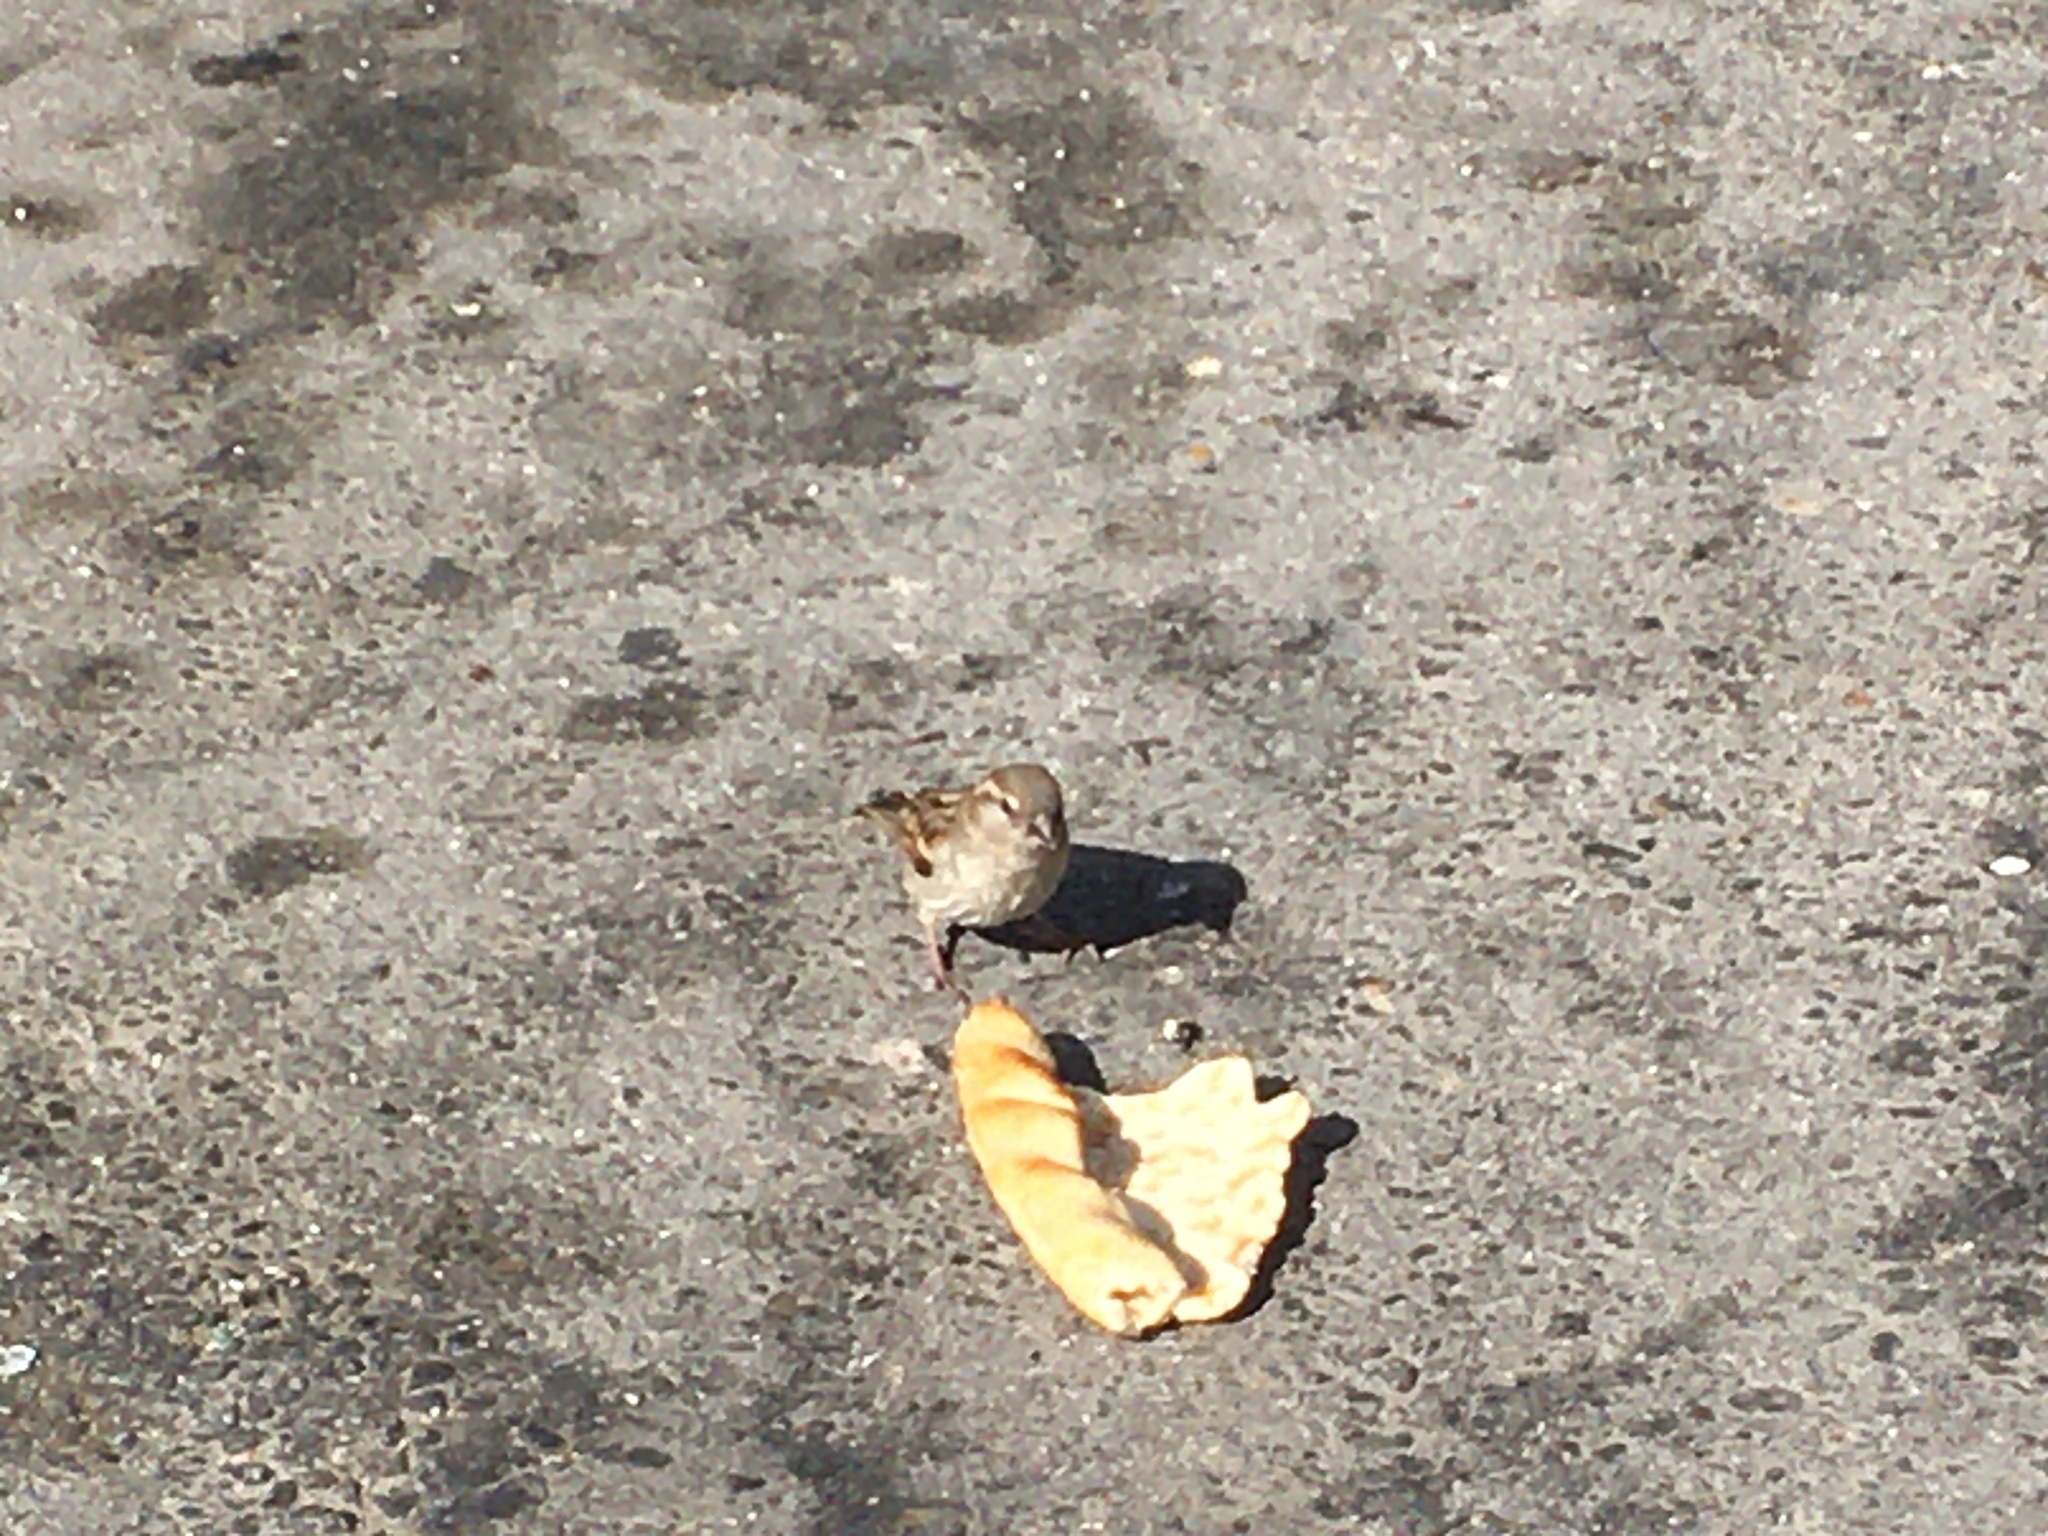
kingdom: Animalia
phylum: Chordata
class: Aves
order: Passeriformes
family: Passeridae
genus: Passer
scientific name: Passer domesticus
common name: House sparrow
